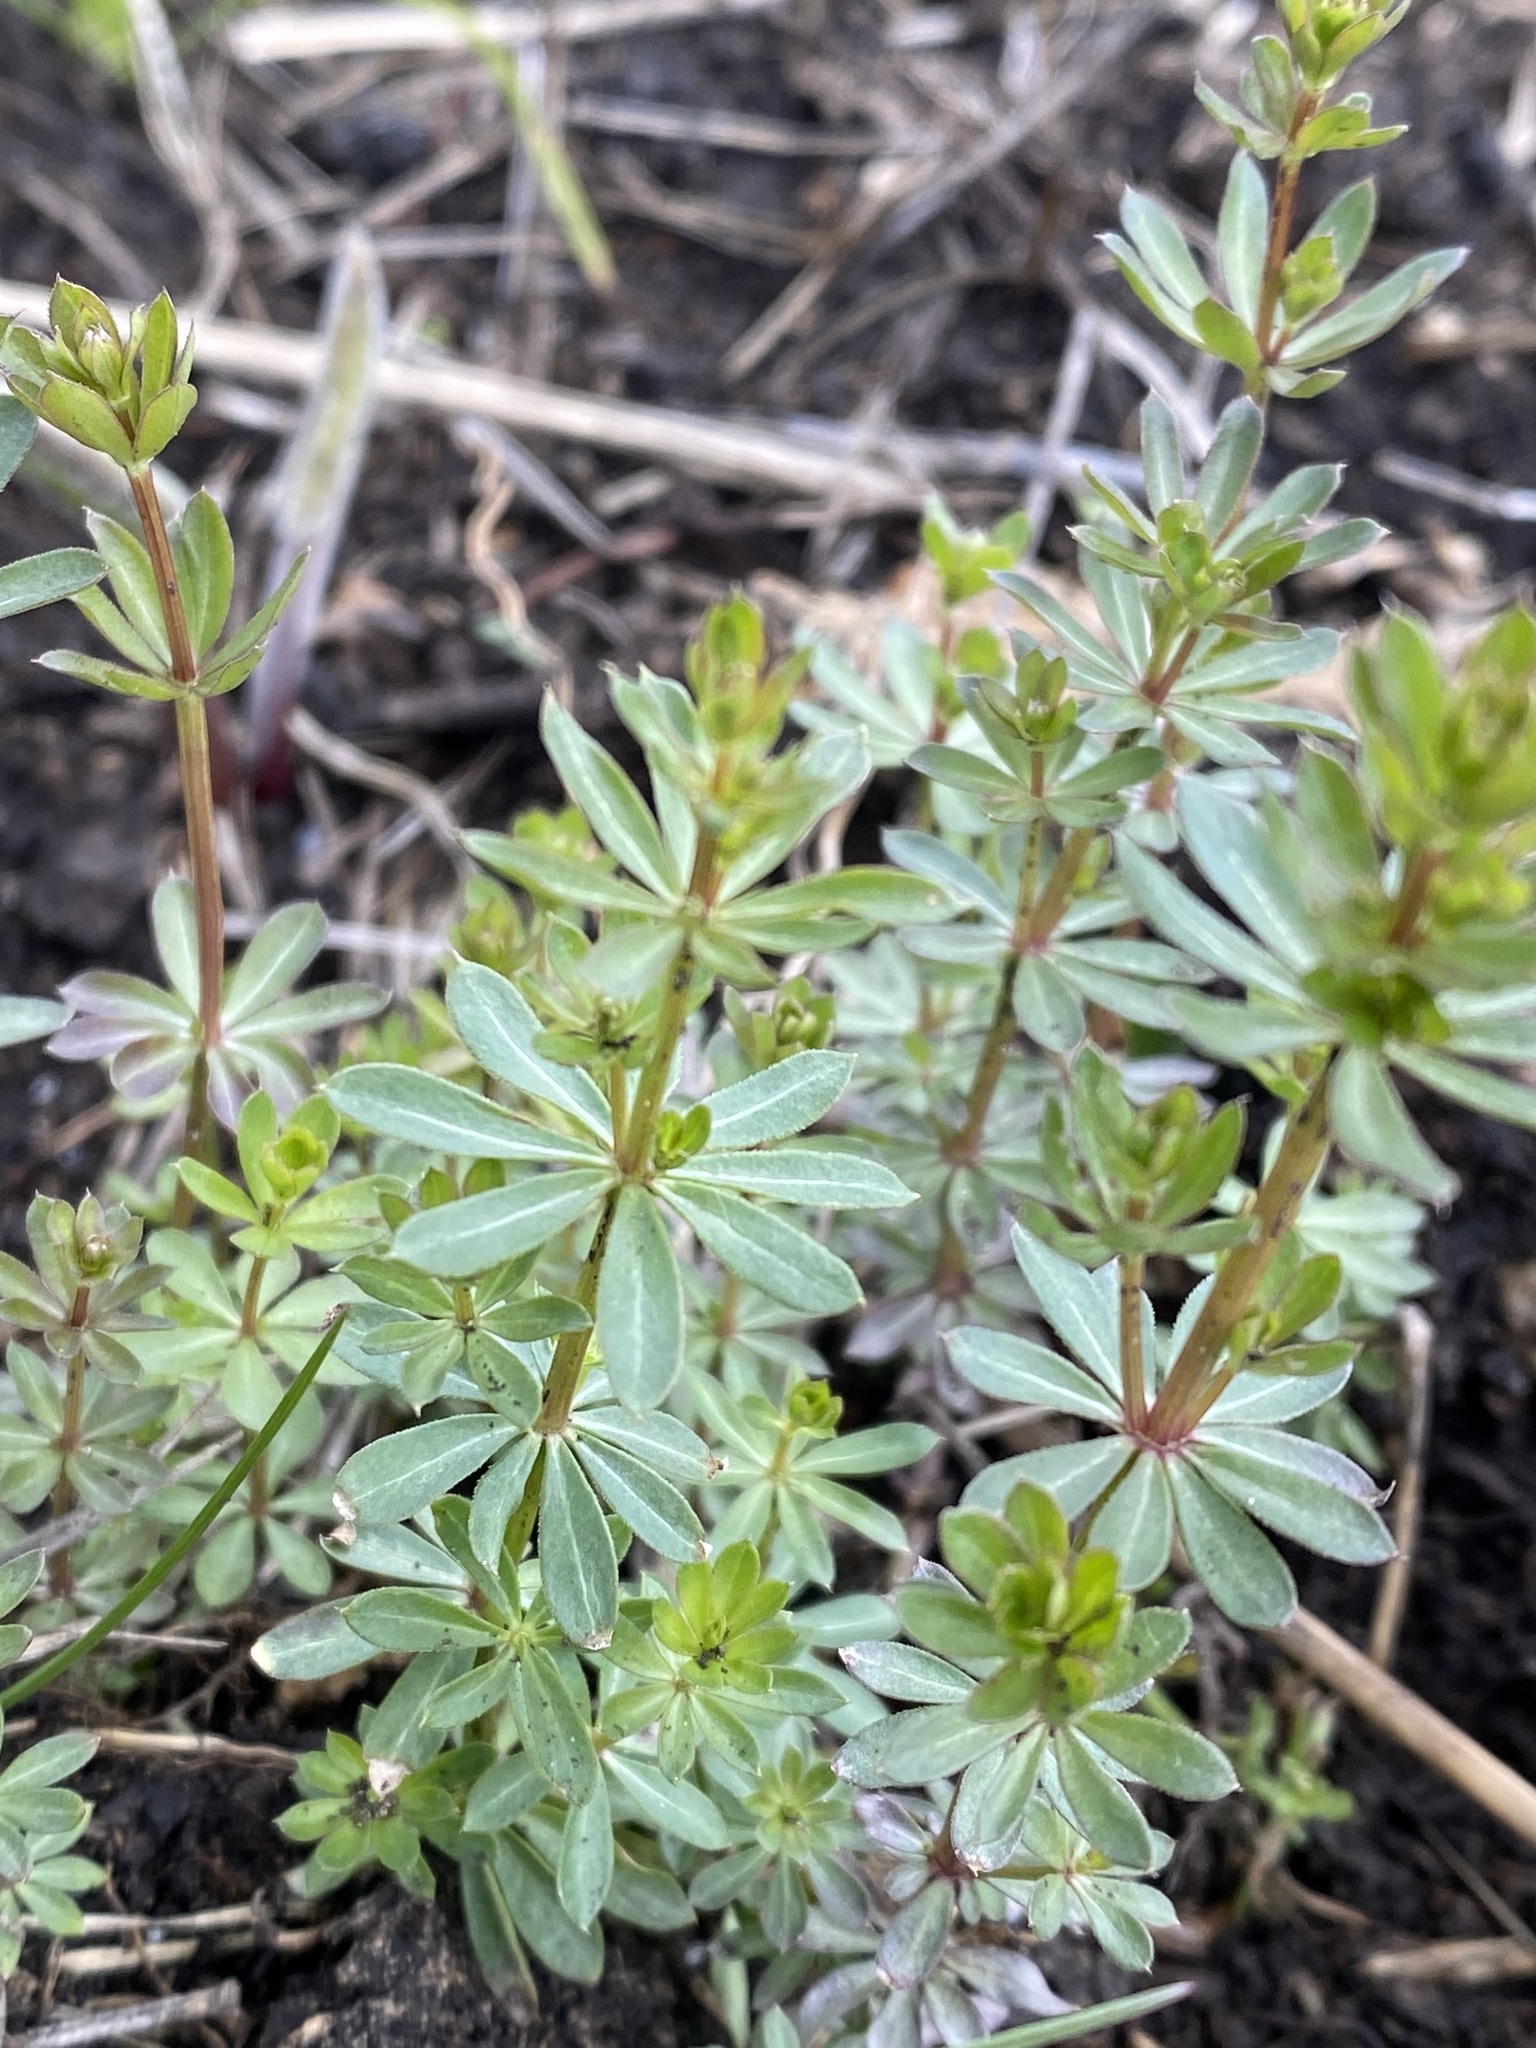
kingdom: Plantae
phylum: Tracheophyta
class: Magnoliopsida
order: Gentianales
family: Rubiaceae
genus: Galium
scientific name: Galium mollugo
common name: Hedge bedstraw
